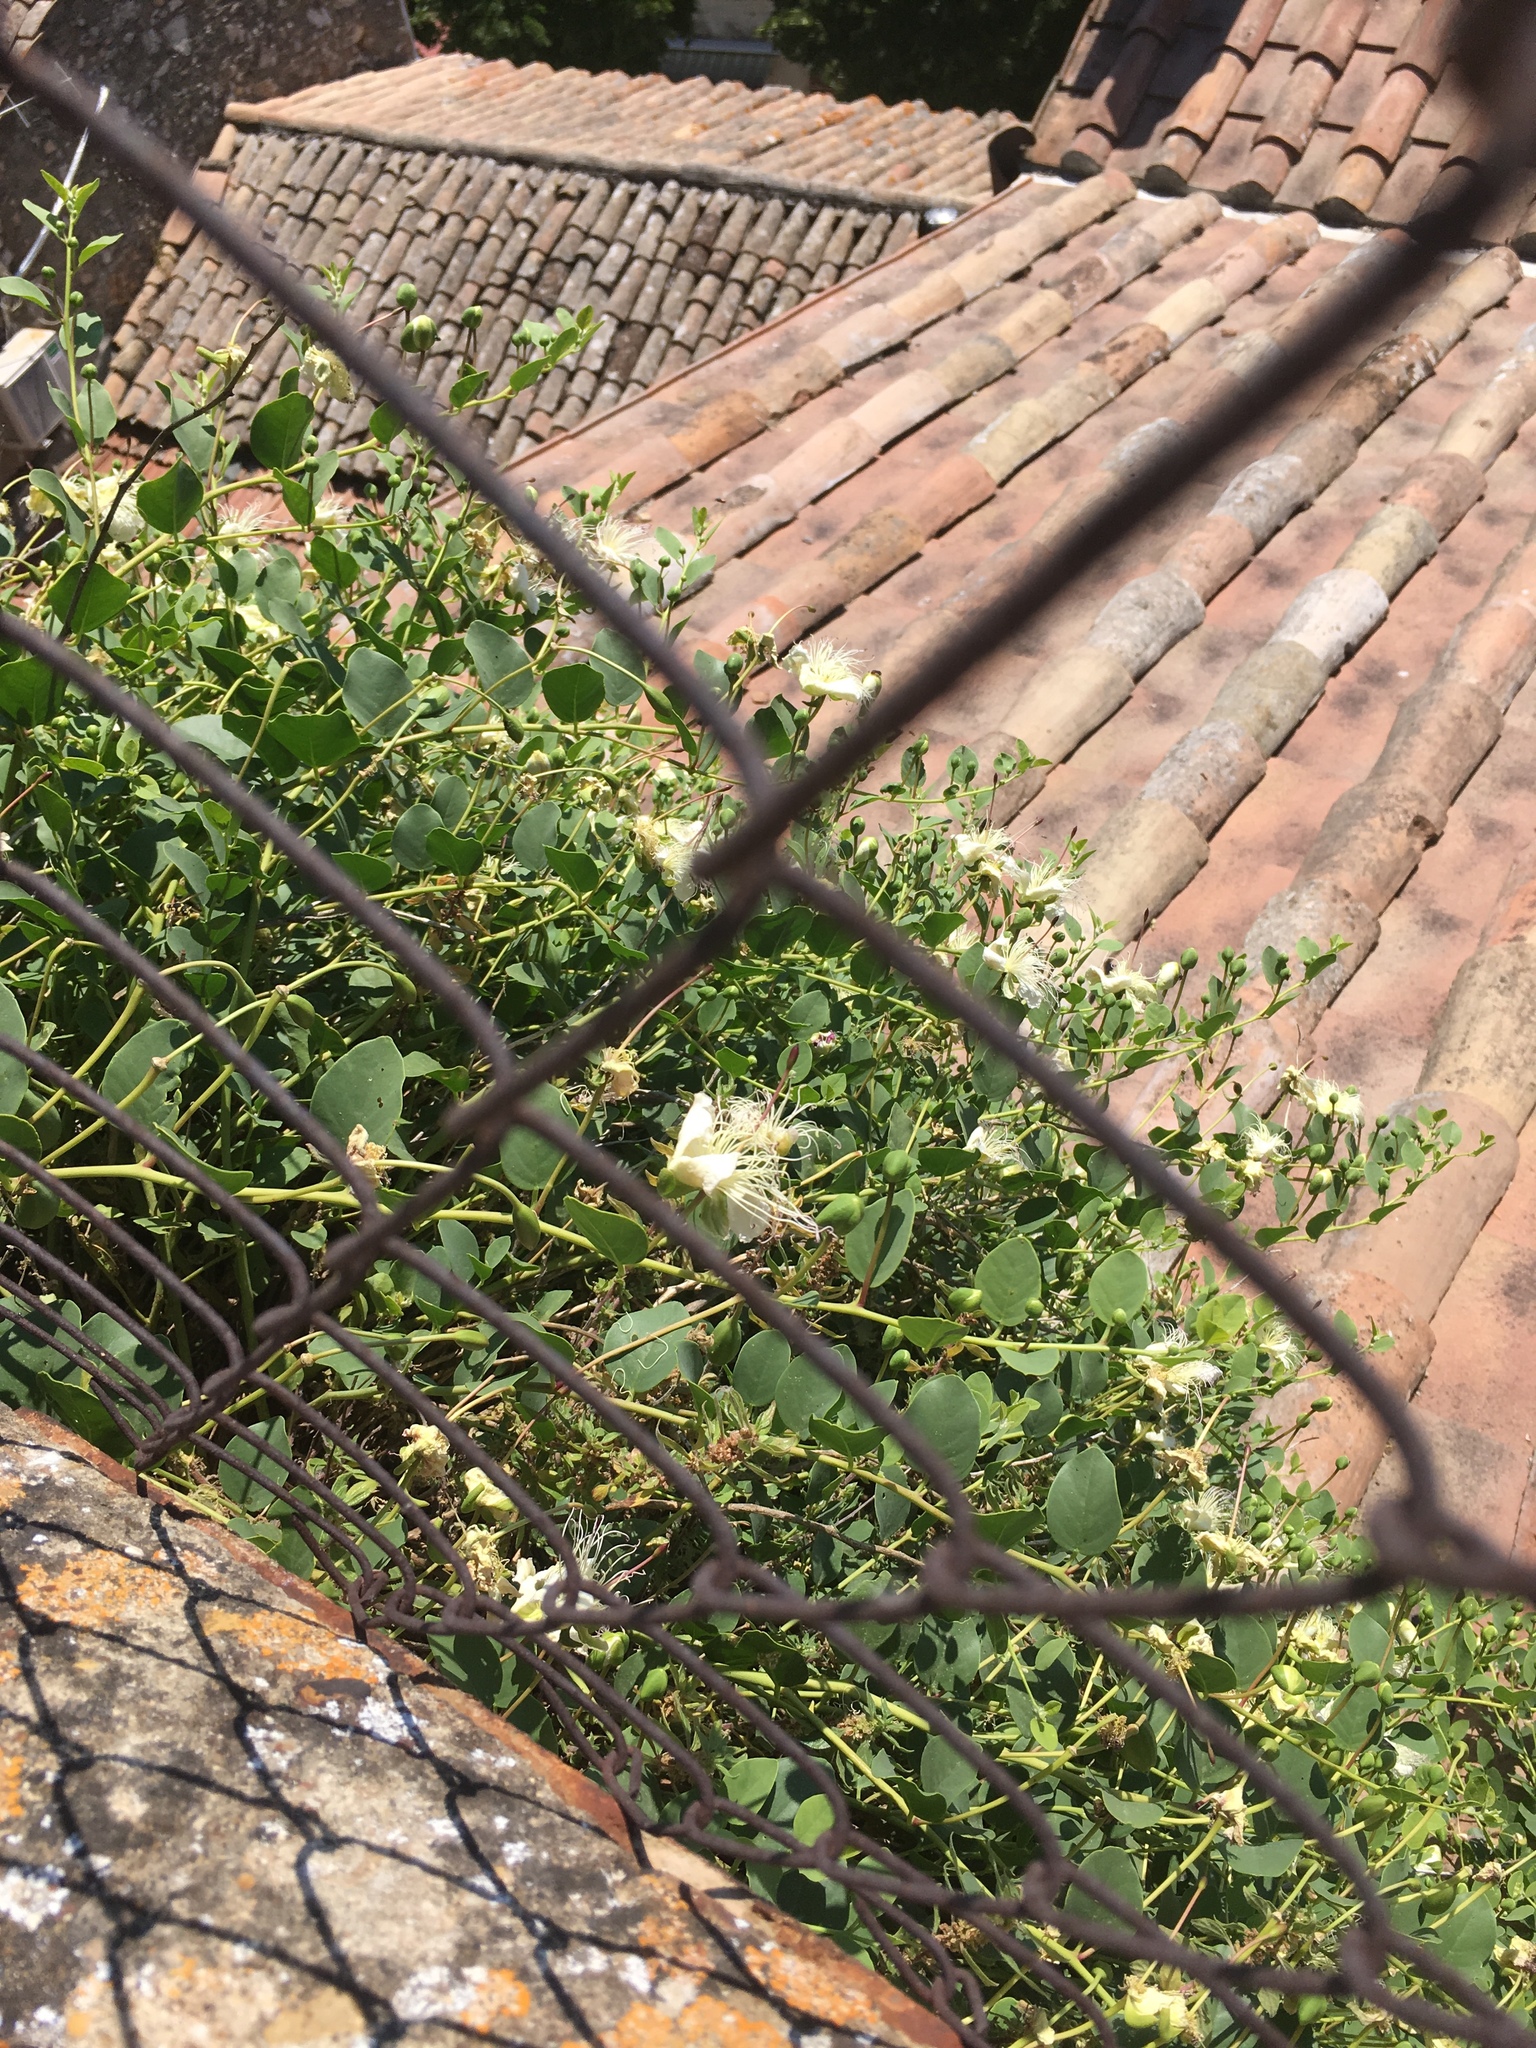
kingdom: Plantae
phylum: Tracheophyta
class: Magnoliopsida
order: Brassicales
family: Capparaceae
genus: Capparis
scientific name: Capparis orientalis
